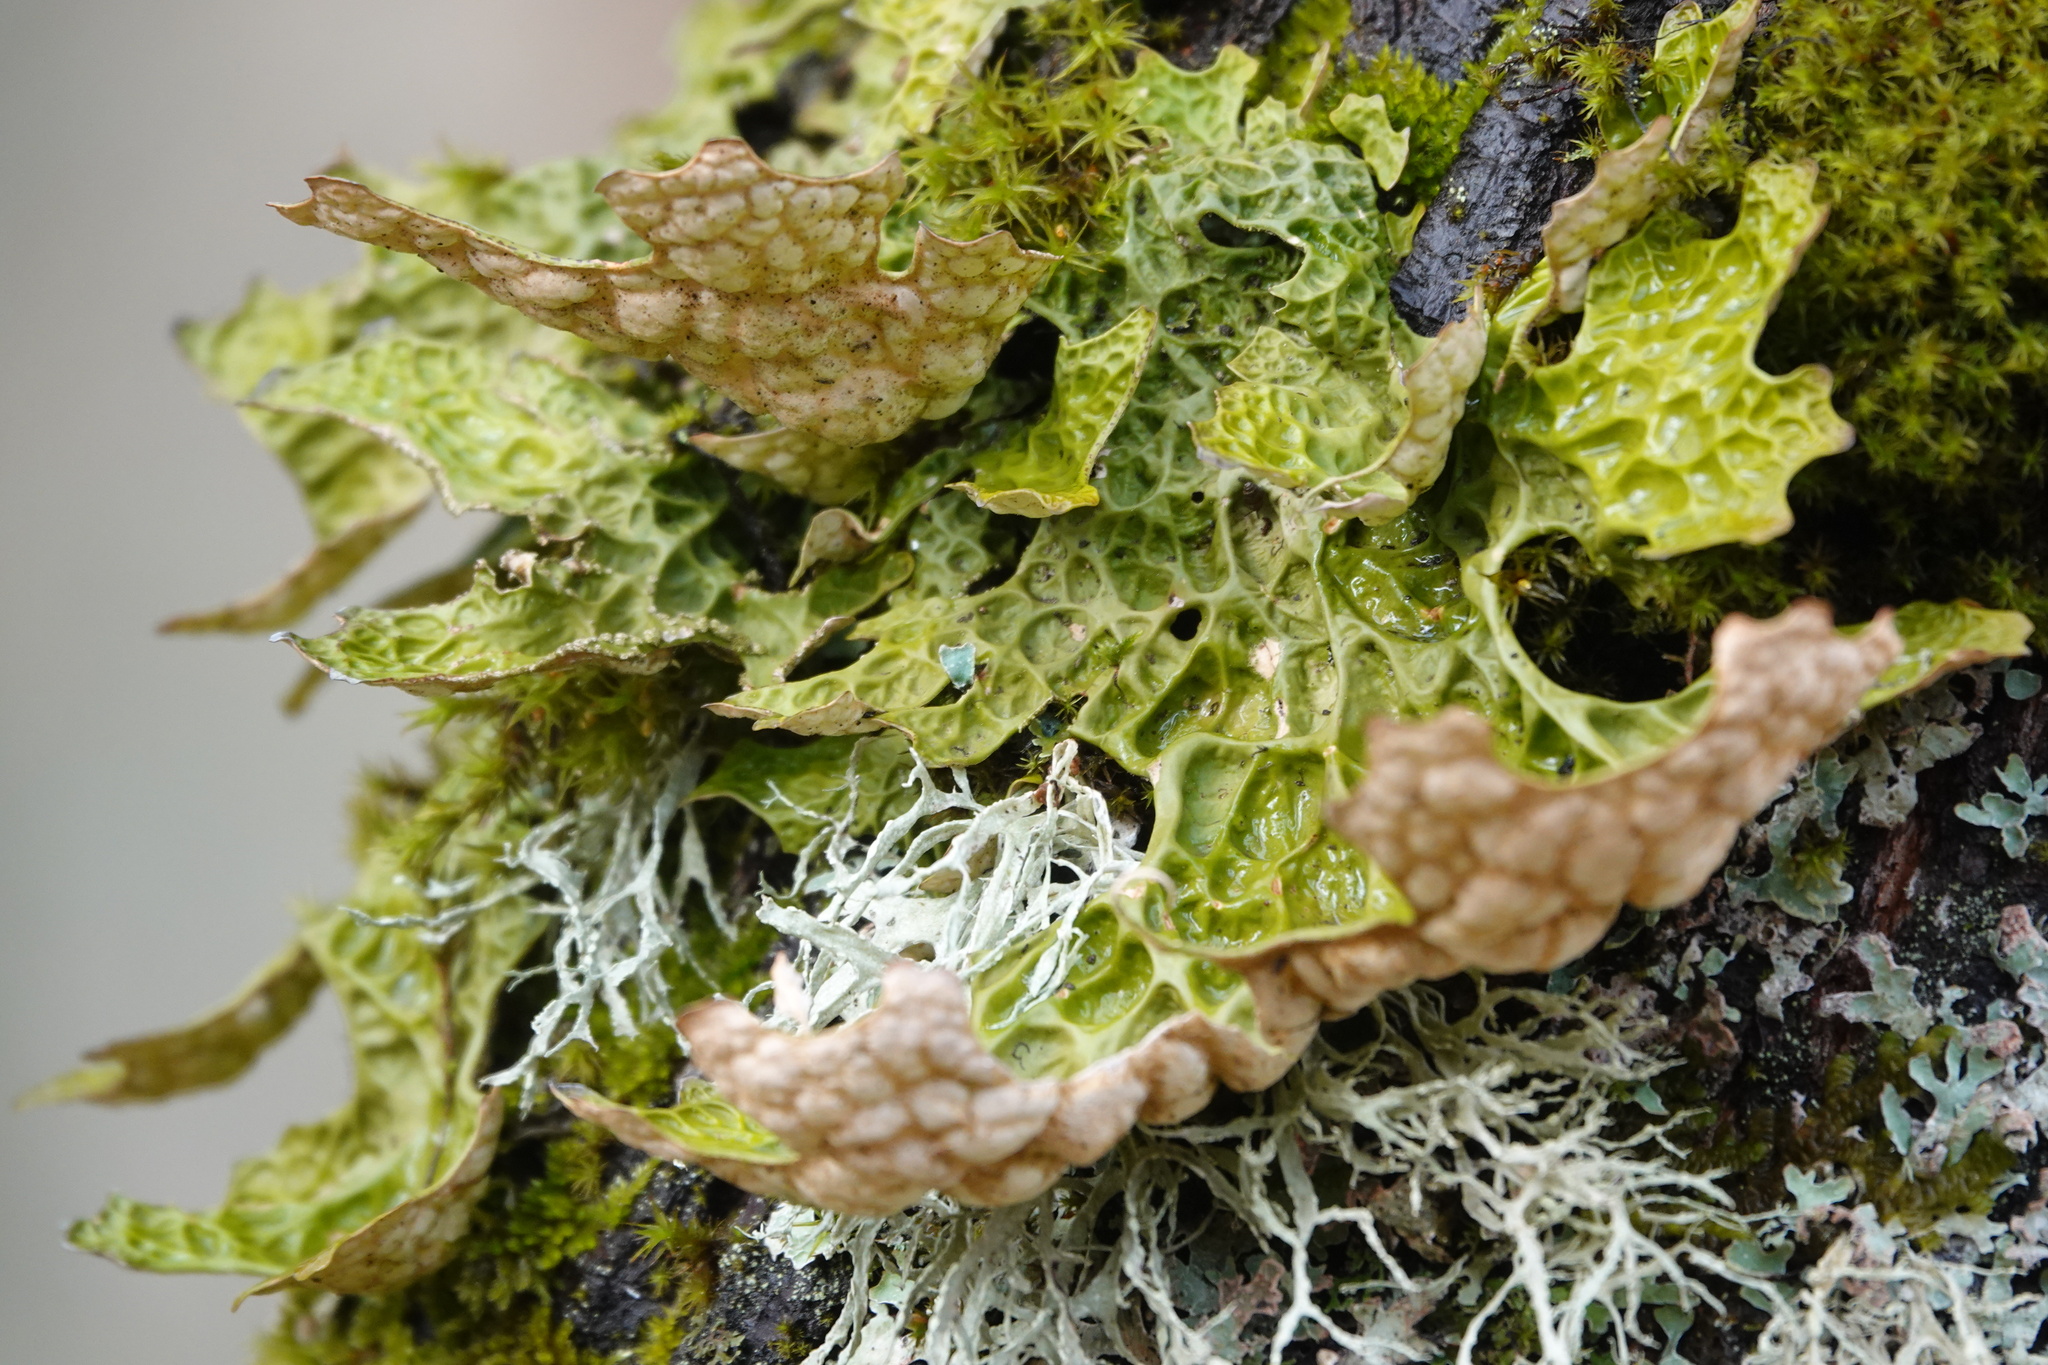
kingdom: Fungi
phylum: Ascomycota
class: Lecanoromycetes
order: Peltigerales
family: Lobariaceae
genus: Lobaria
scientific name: Lobaria pulmonaria
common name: Lungwort
